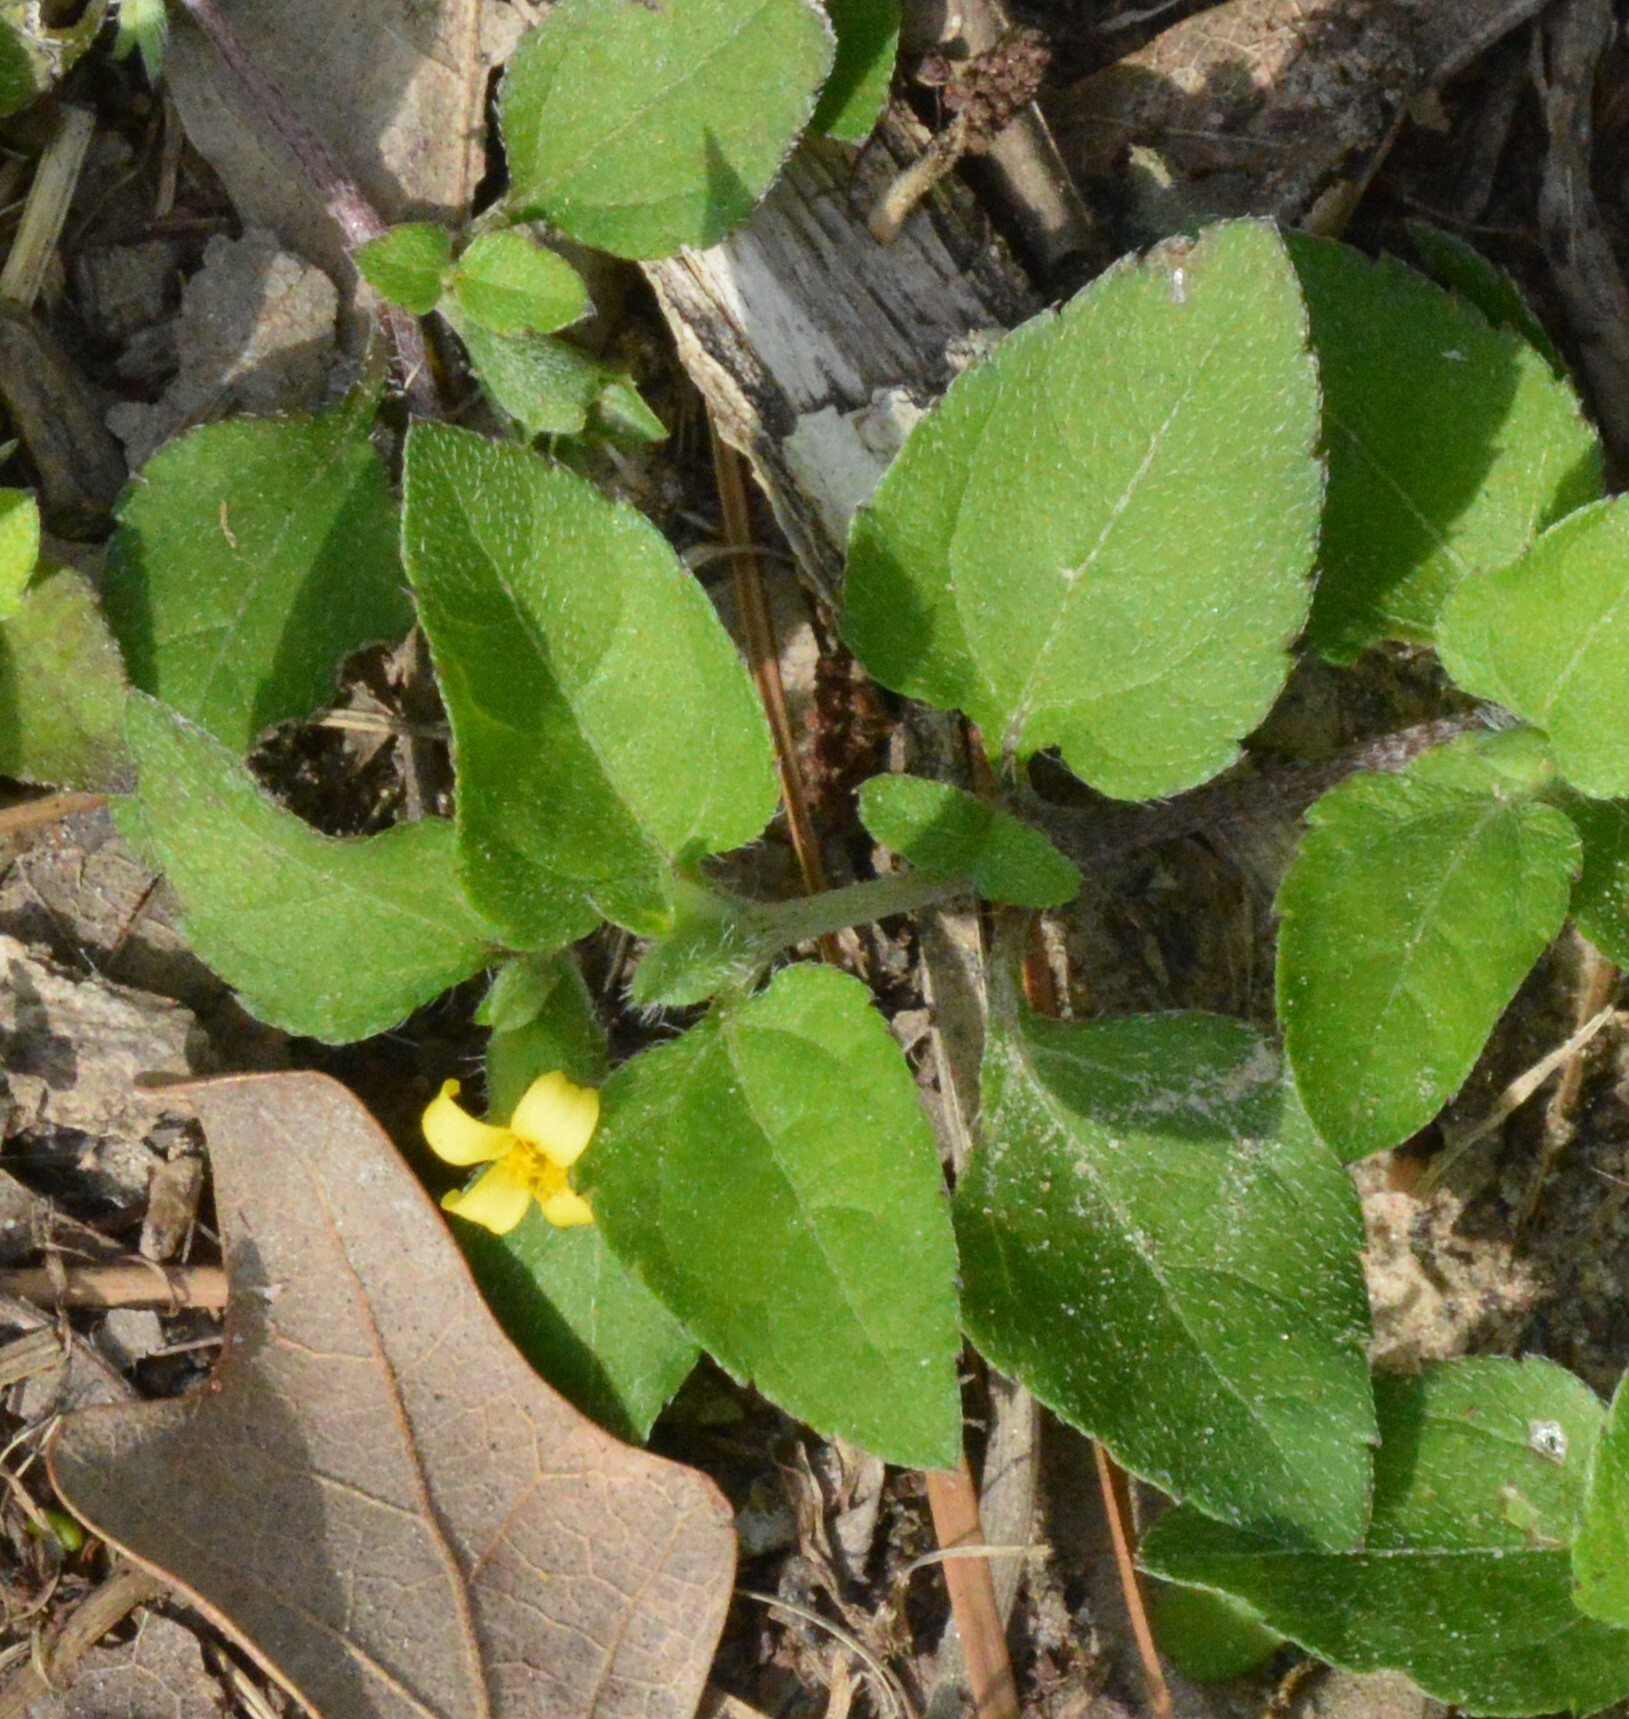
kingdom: Plantae
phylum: Tracheophyta
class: Magnoliopsida
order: Asterales
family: Asteraceae
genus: Calyptocarpus
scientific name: Calyptocarpus vialis
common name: Straggler daisy
